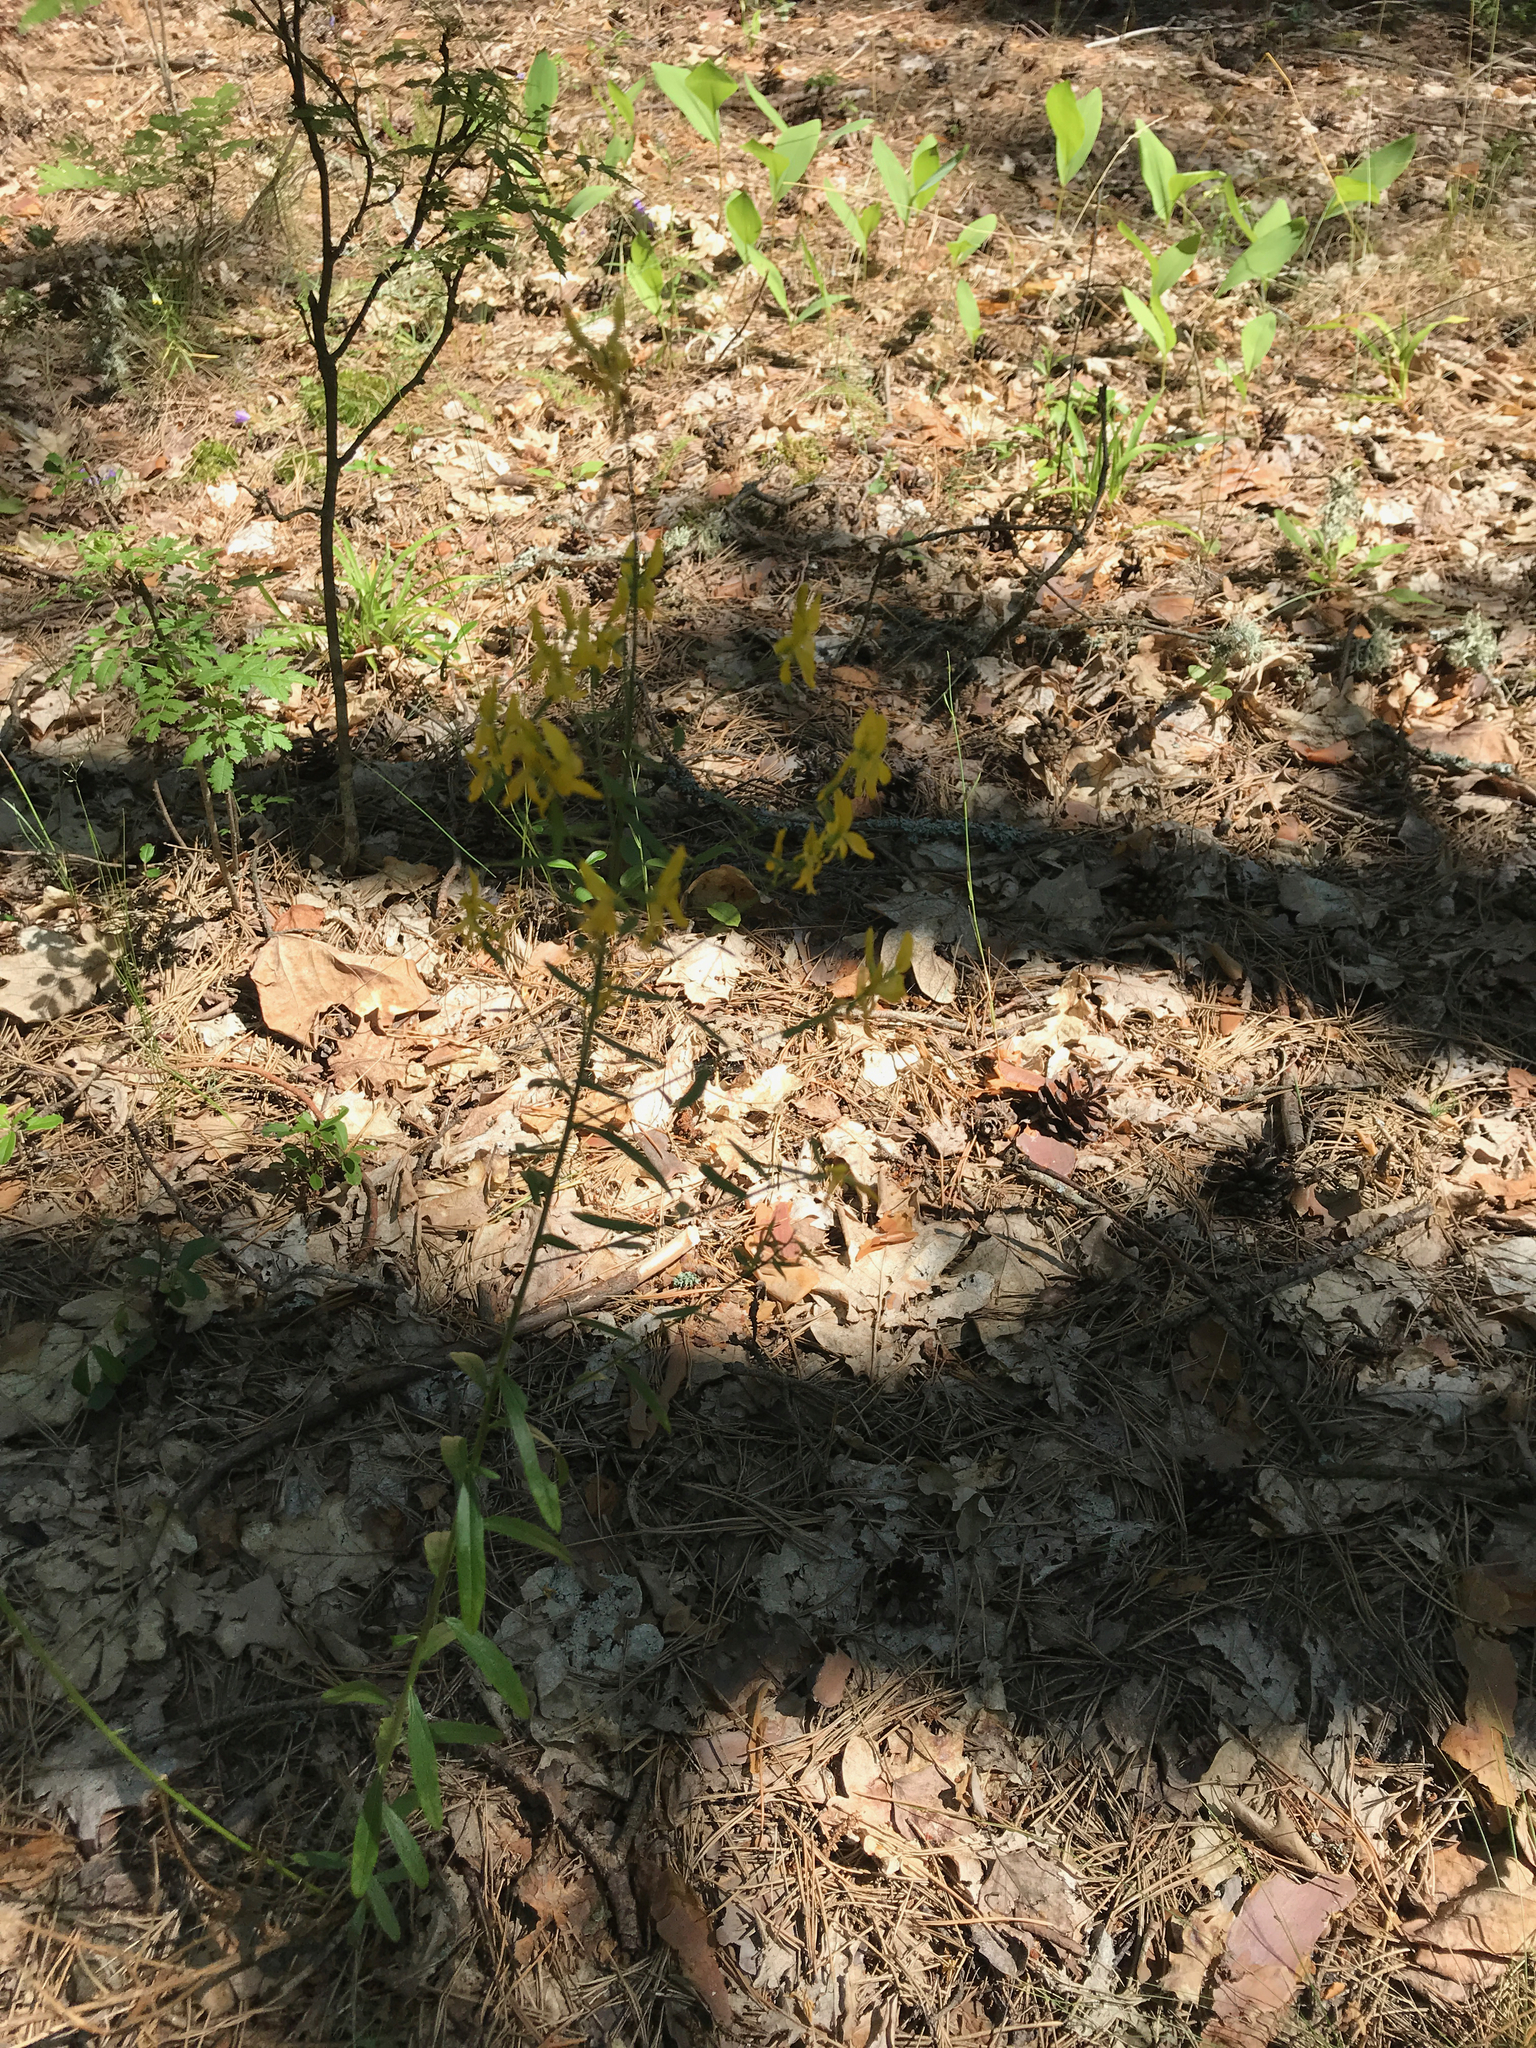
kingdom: Plantae
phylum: Tracheophyta
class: Magnoliopsida
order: Fabales
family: Fabaceae
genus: Genista
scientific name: Genista tinctoria
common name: Dyer's greenweed
